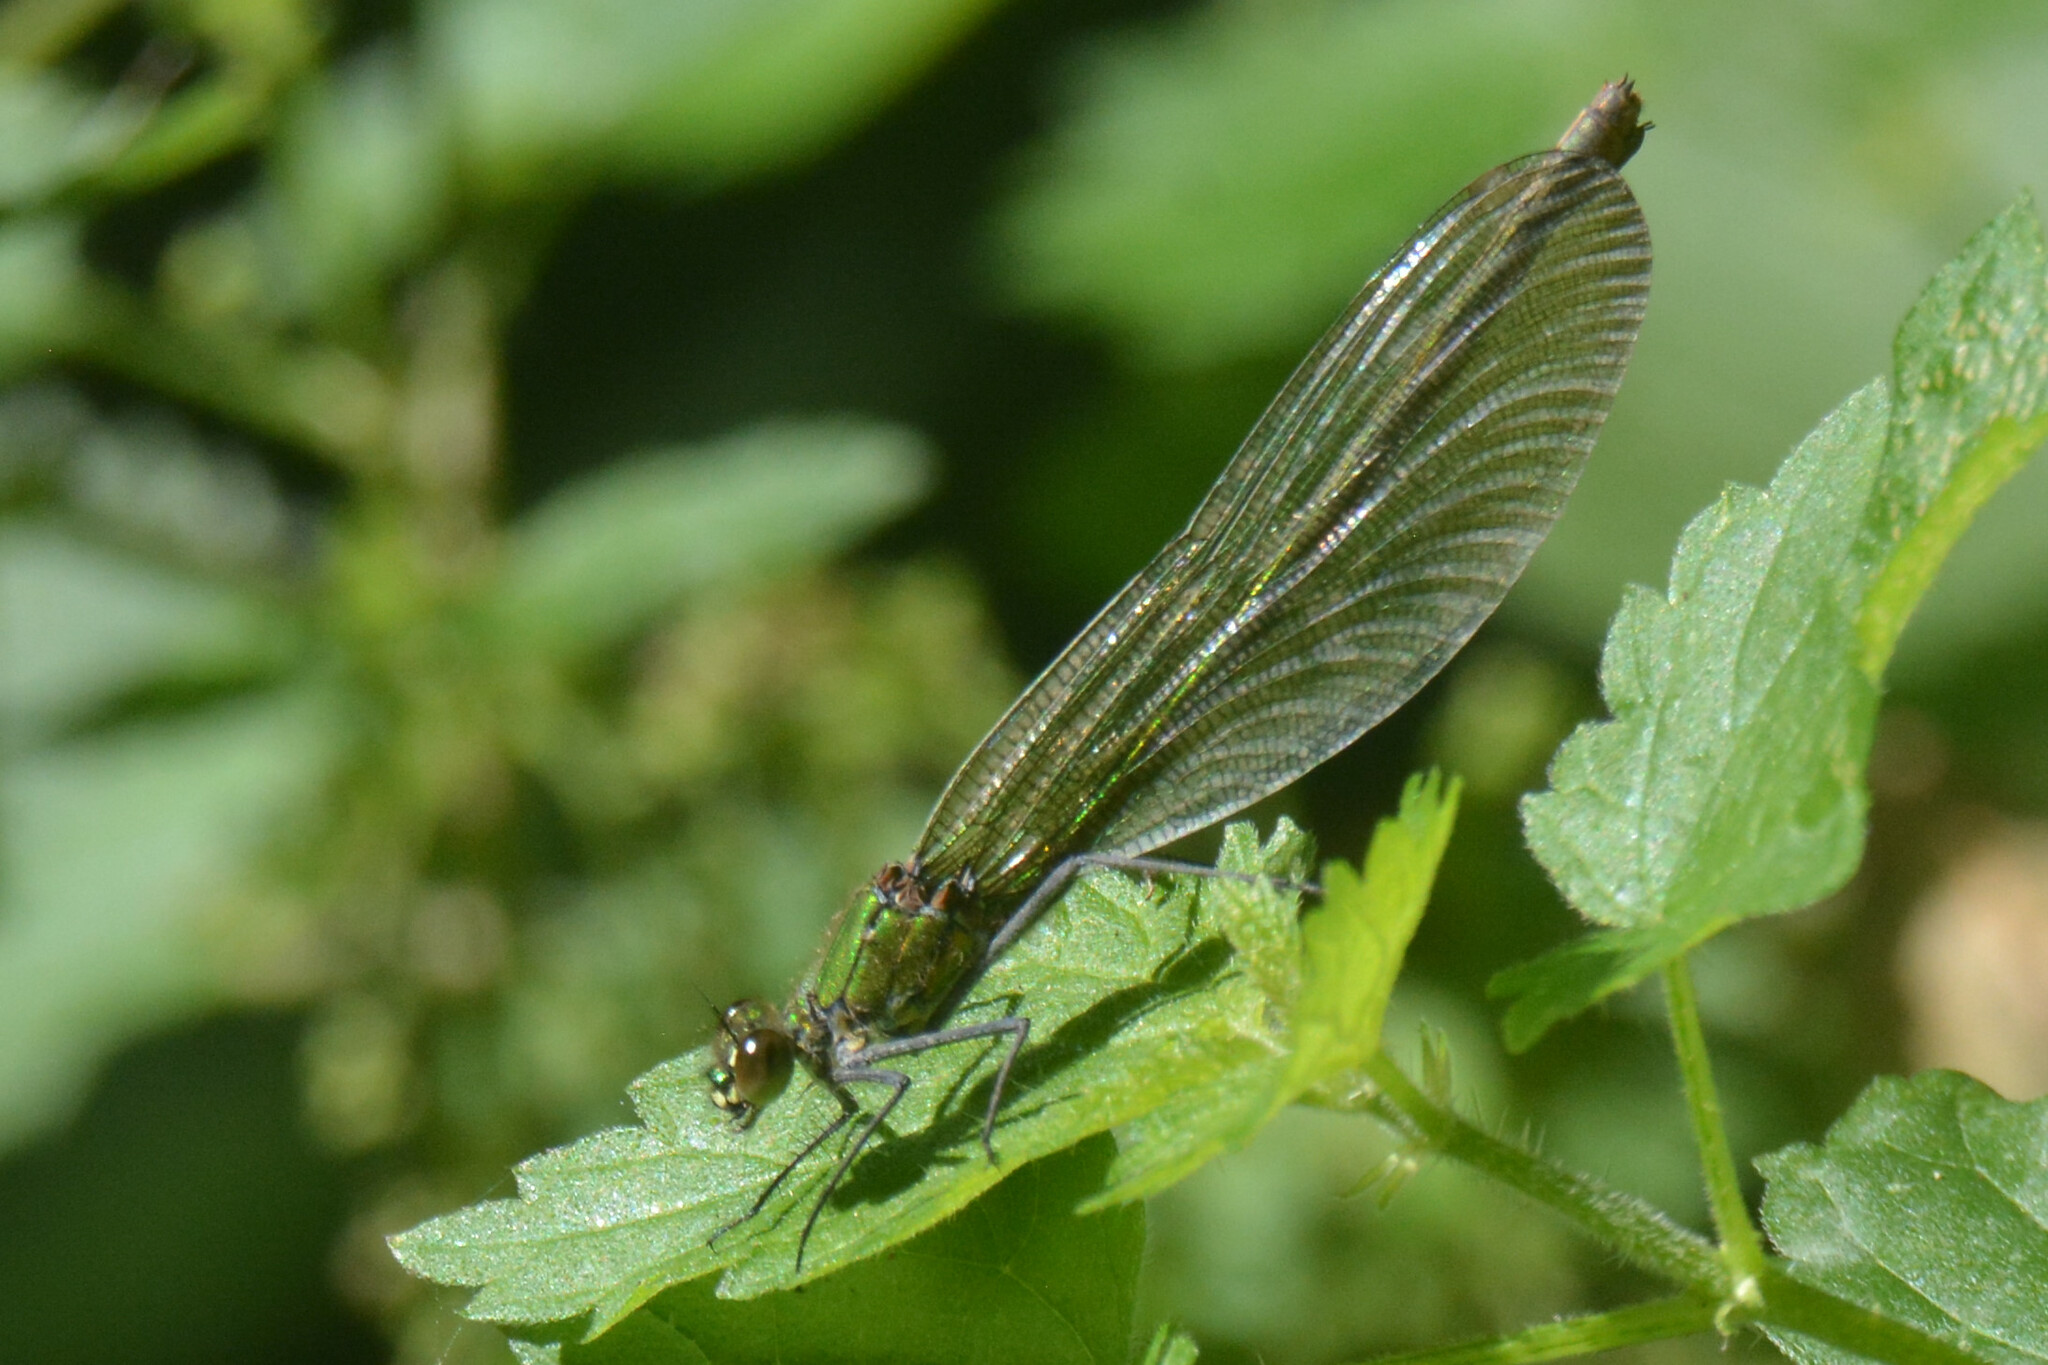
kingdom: Animalia
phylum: Arthropoda
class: Insecta
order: Odonata
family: Calopterygidae
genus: Calopteryx
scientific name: Calopteryx splendens
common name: Banded demoiselle
